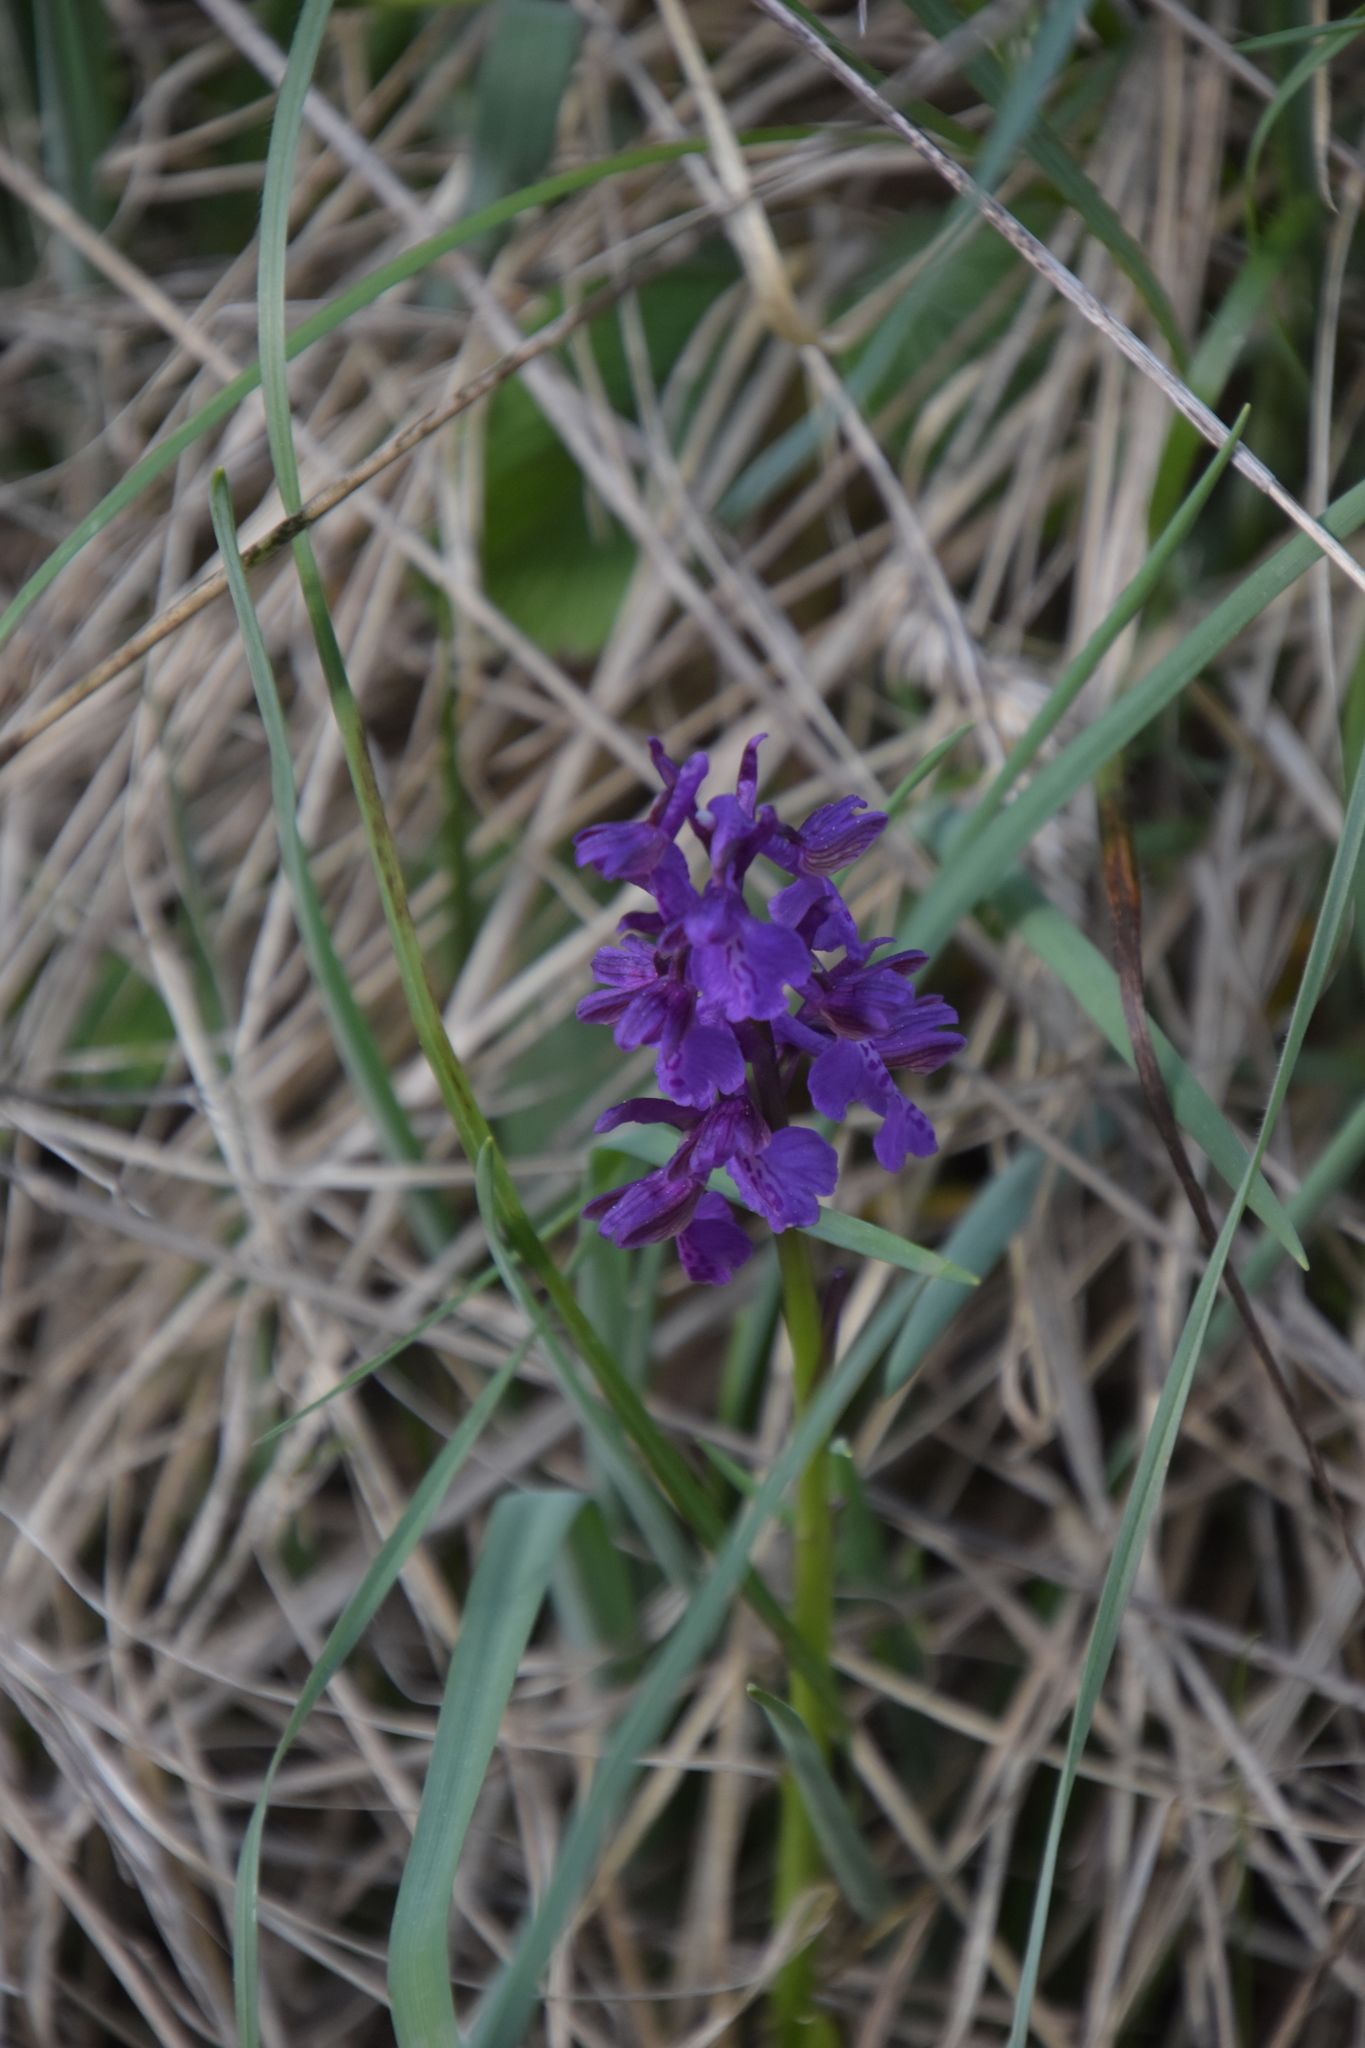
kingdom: Plantae
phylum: Tracheophyta
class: Liliopsida
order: Asparagales
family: Orchidaceae
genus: Anacamptis
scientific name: Anacamptis morio
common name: Green-winged orchid
